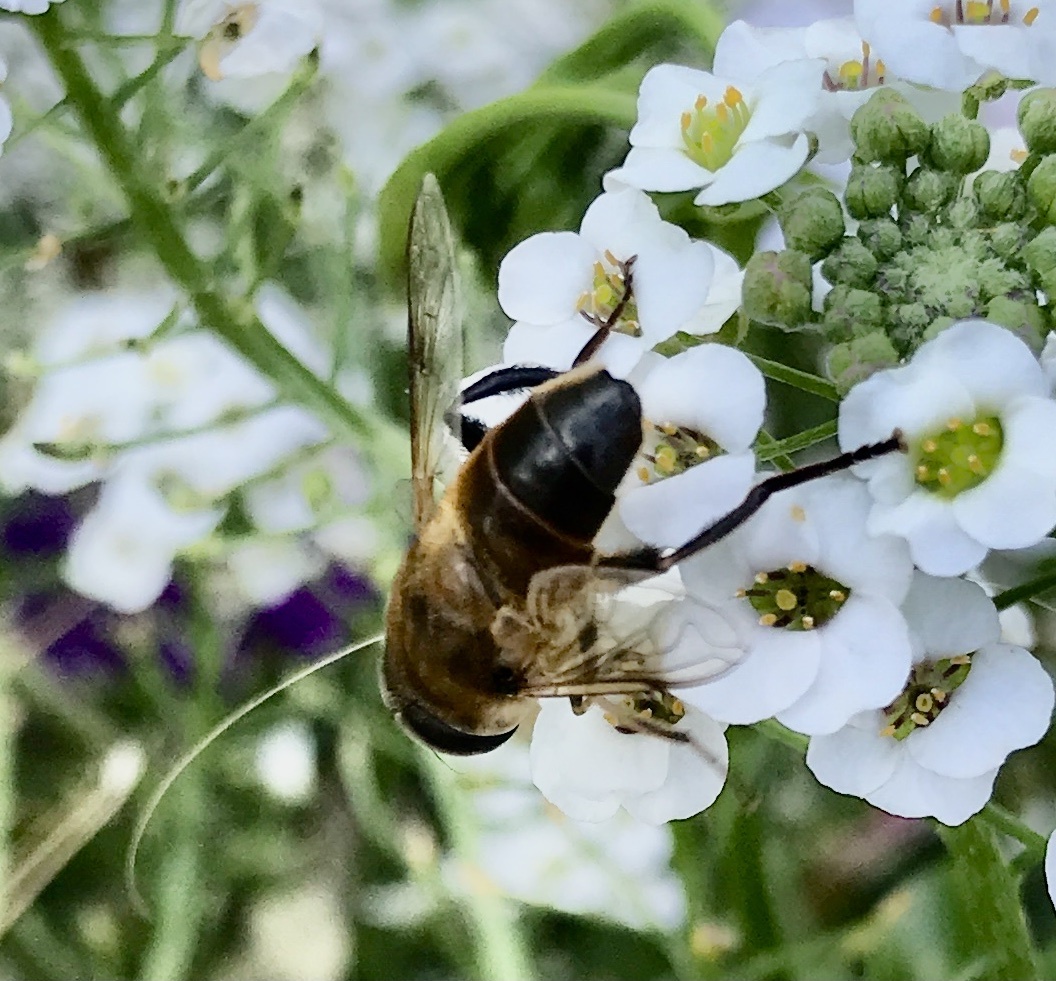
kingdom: Animalia
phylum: Arthropoda
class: Insecta
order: Diptera
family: Syrphidae
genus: Eristalis
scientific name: Eristalis tenax
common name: Drone fly
